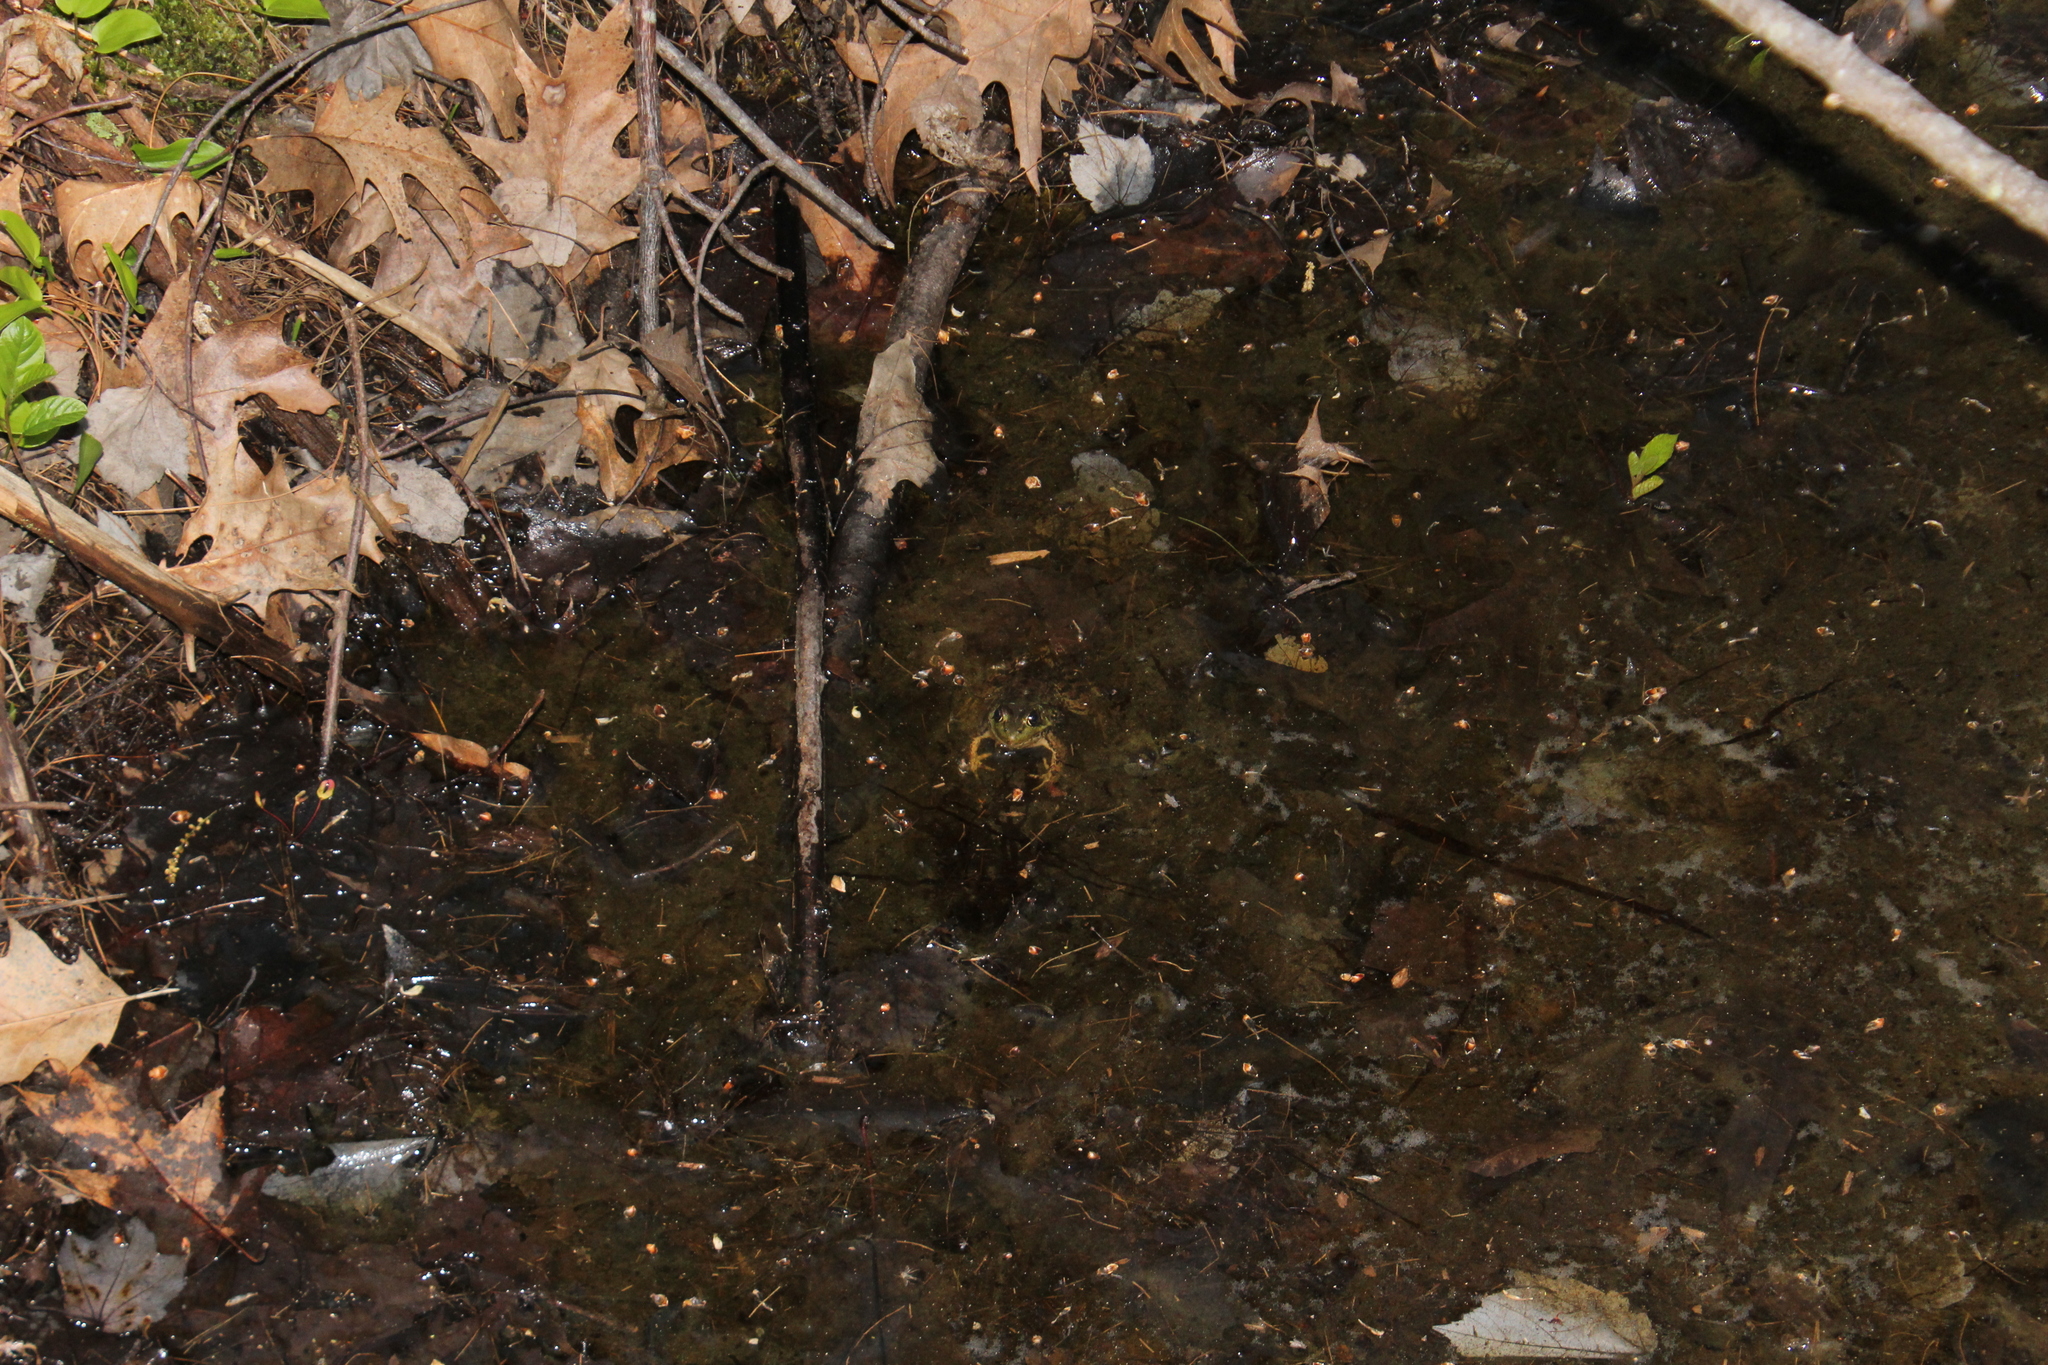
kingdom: Animalia
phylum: Chordata
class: Amphibia
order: Anura
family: Ranidae
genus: Lithobates
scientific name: Lithobates clamitans
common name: Green frog
